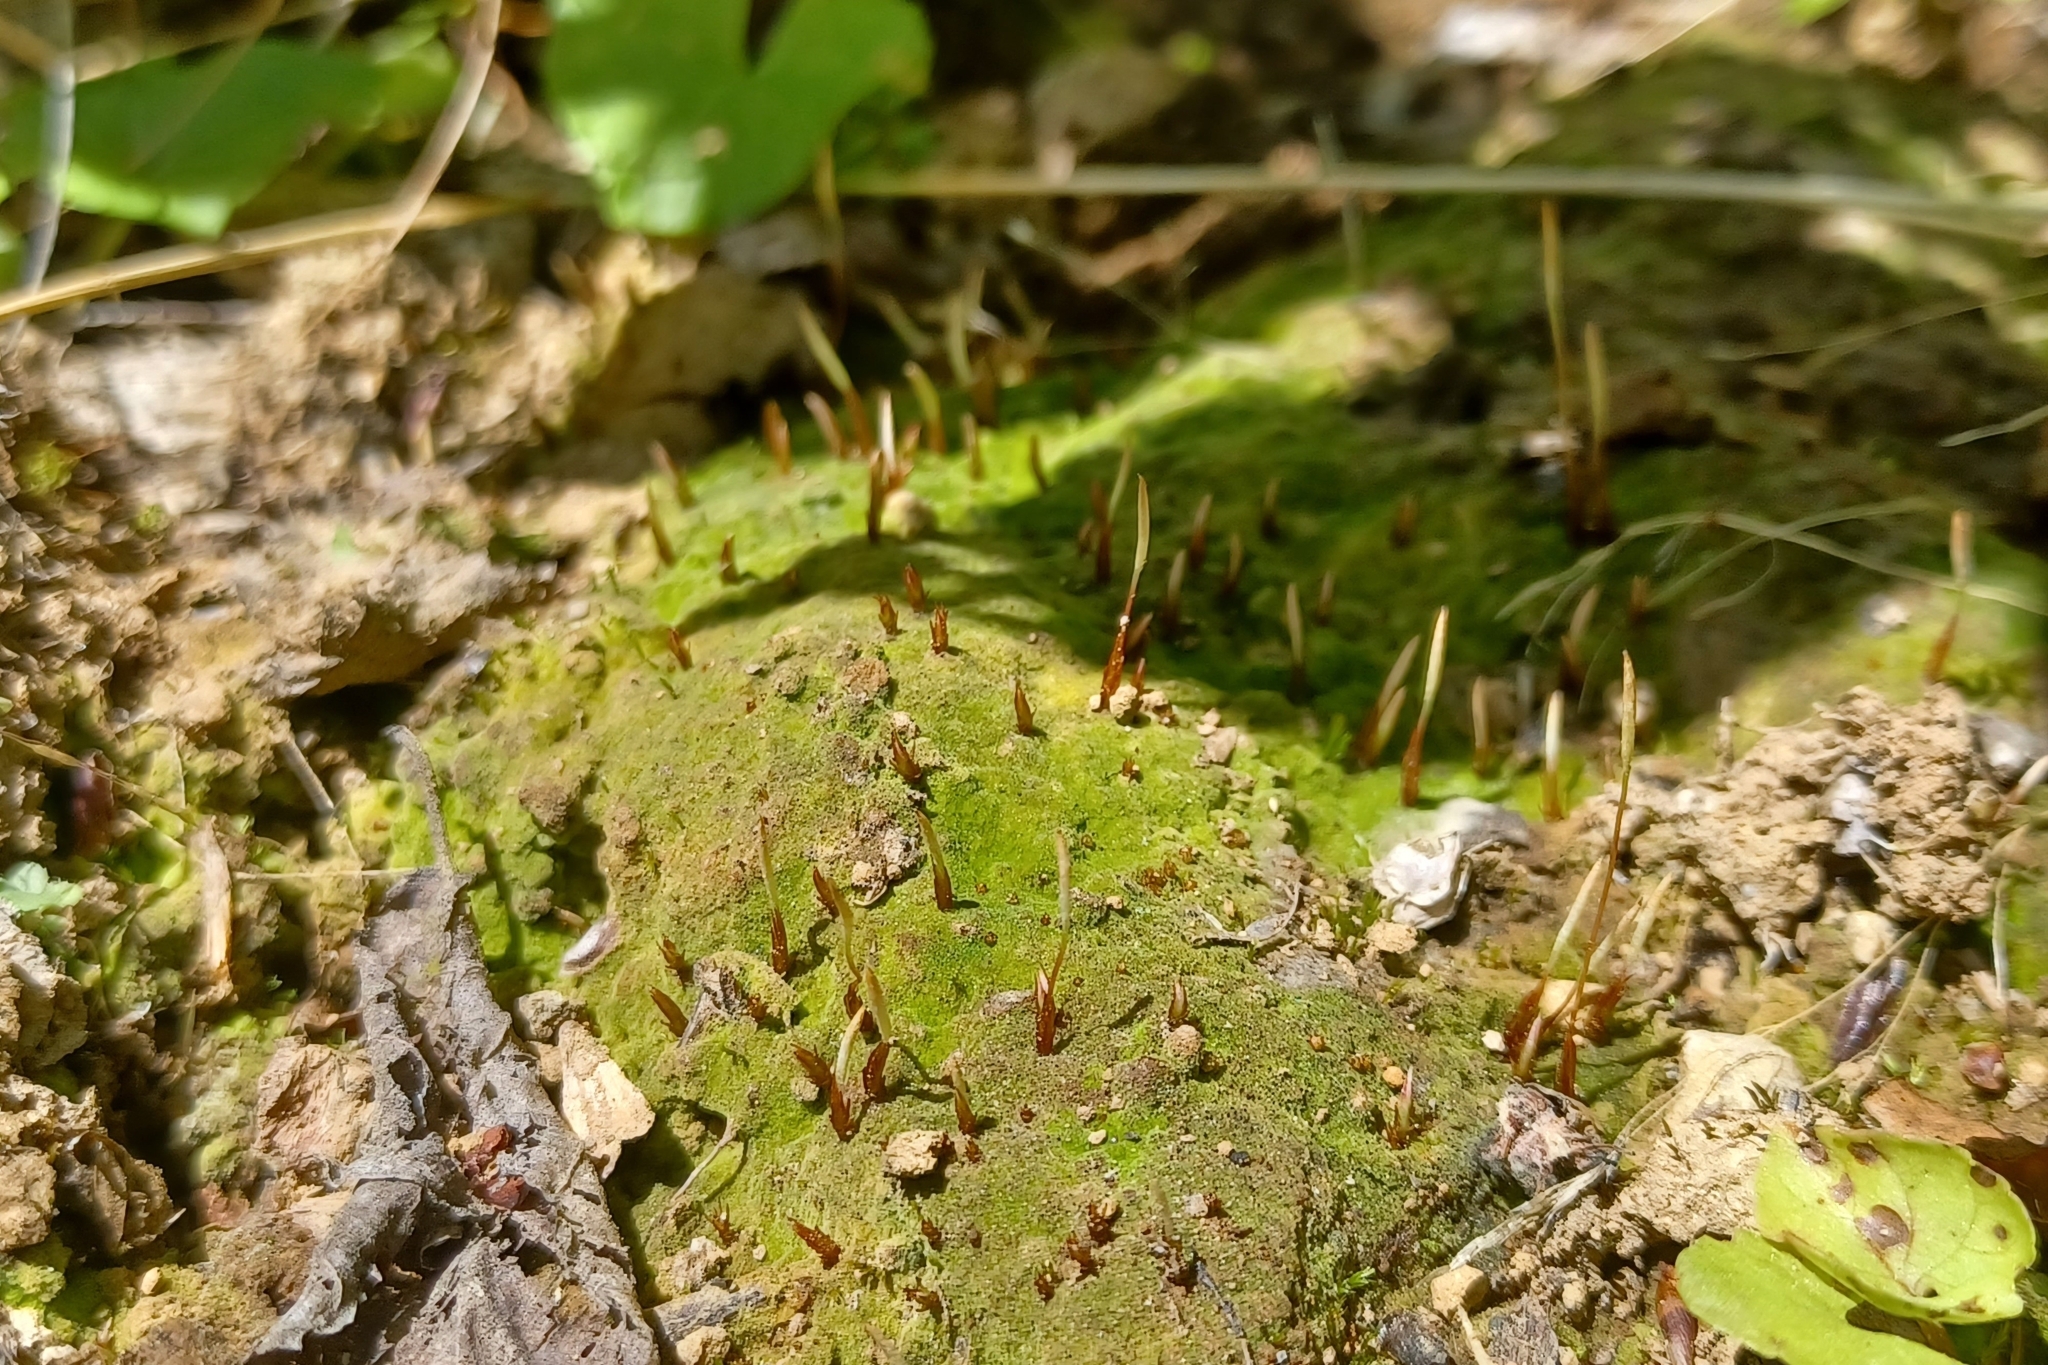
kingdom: Plantae
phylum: Bryophyta
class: Polytrichopsida
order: Polytrichales
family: Polytrichaceae
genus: Pogonatum
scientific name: Pogonatum pensilvanicum
